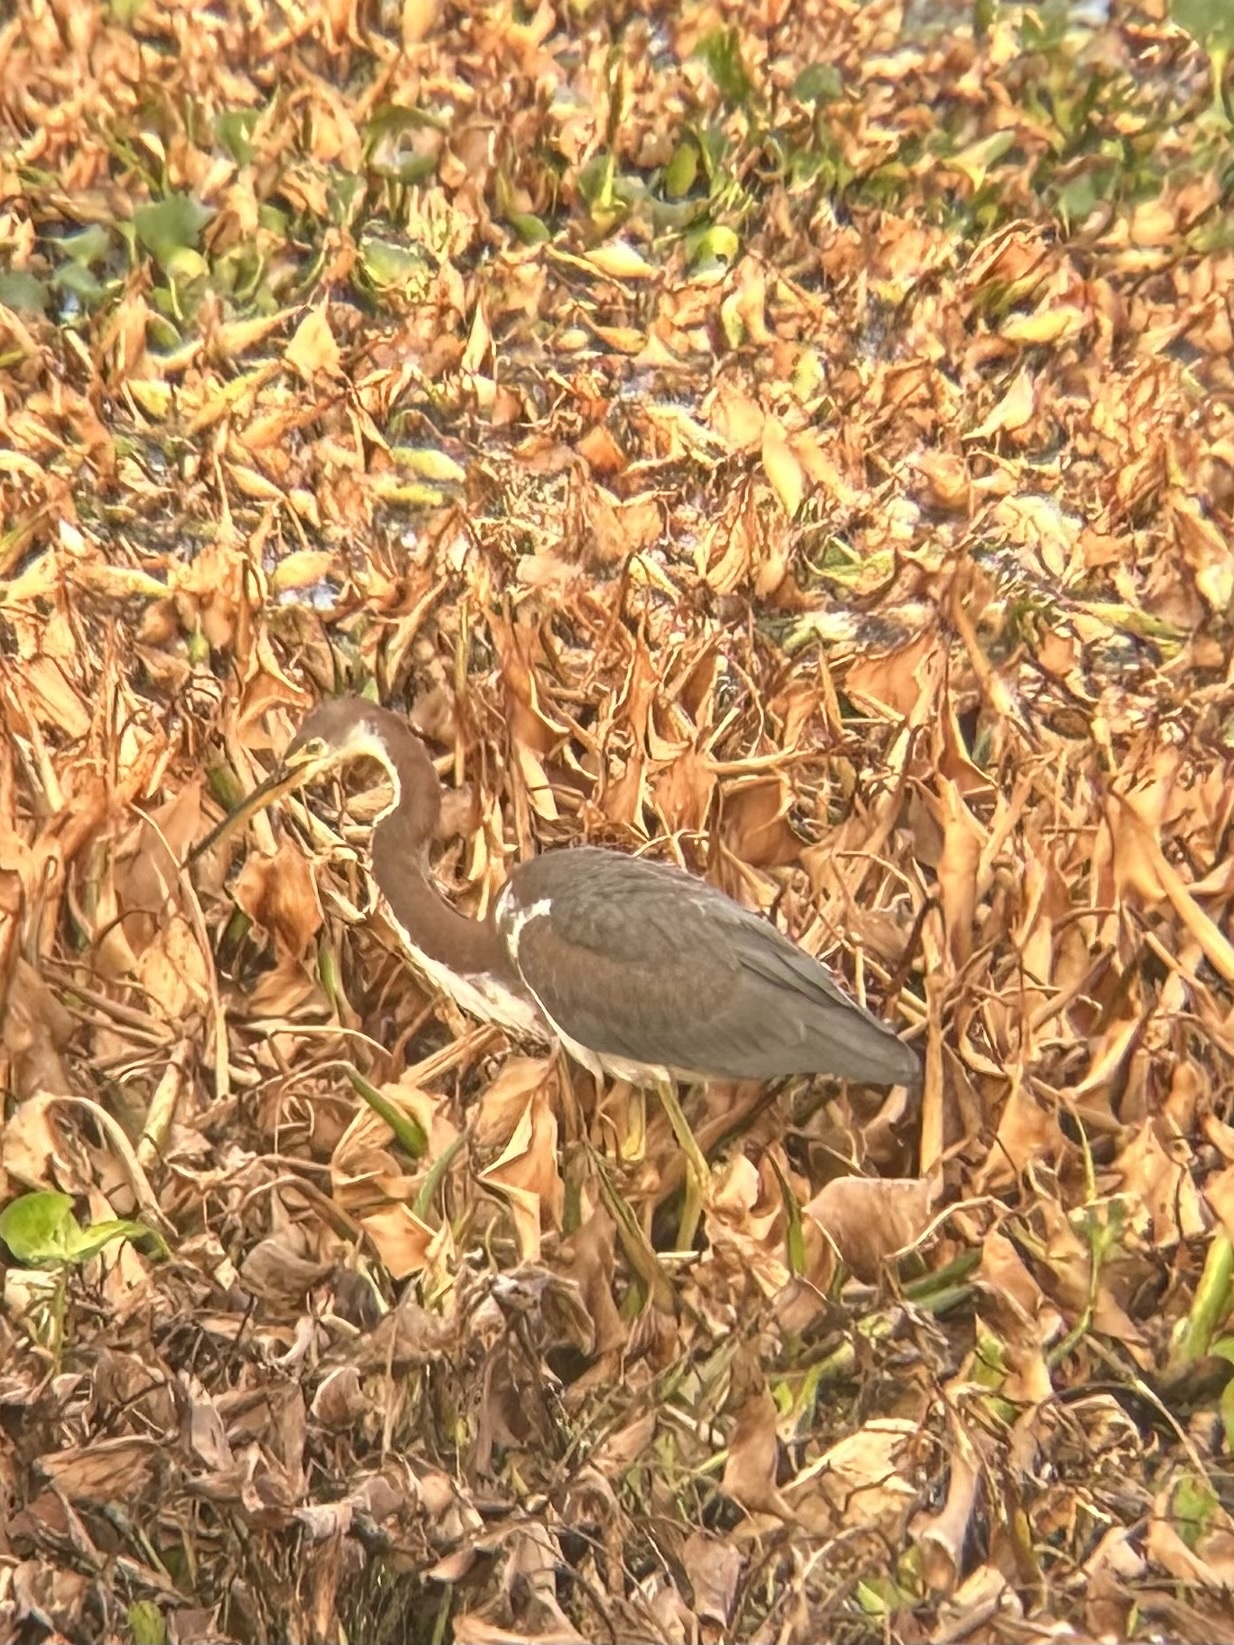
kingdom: Animalia
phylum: Chordata
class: Aves
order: Pelecaniformes
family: Ardeidae
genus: Egretta
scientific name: Egretta tricolor
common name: Tricolored heron
